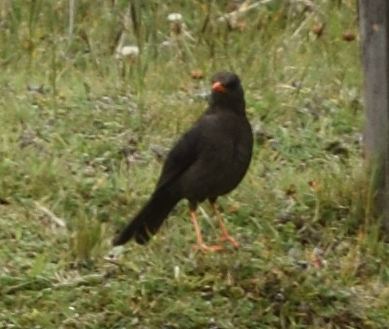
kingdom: Animalia
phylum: Chordata
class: Aves
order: Passeriformes
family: Turdidae
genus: Turdus
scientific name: Turdus fuscater
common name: Great thrush
